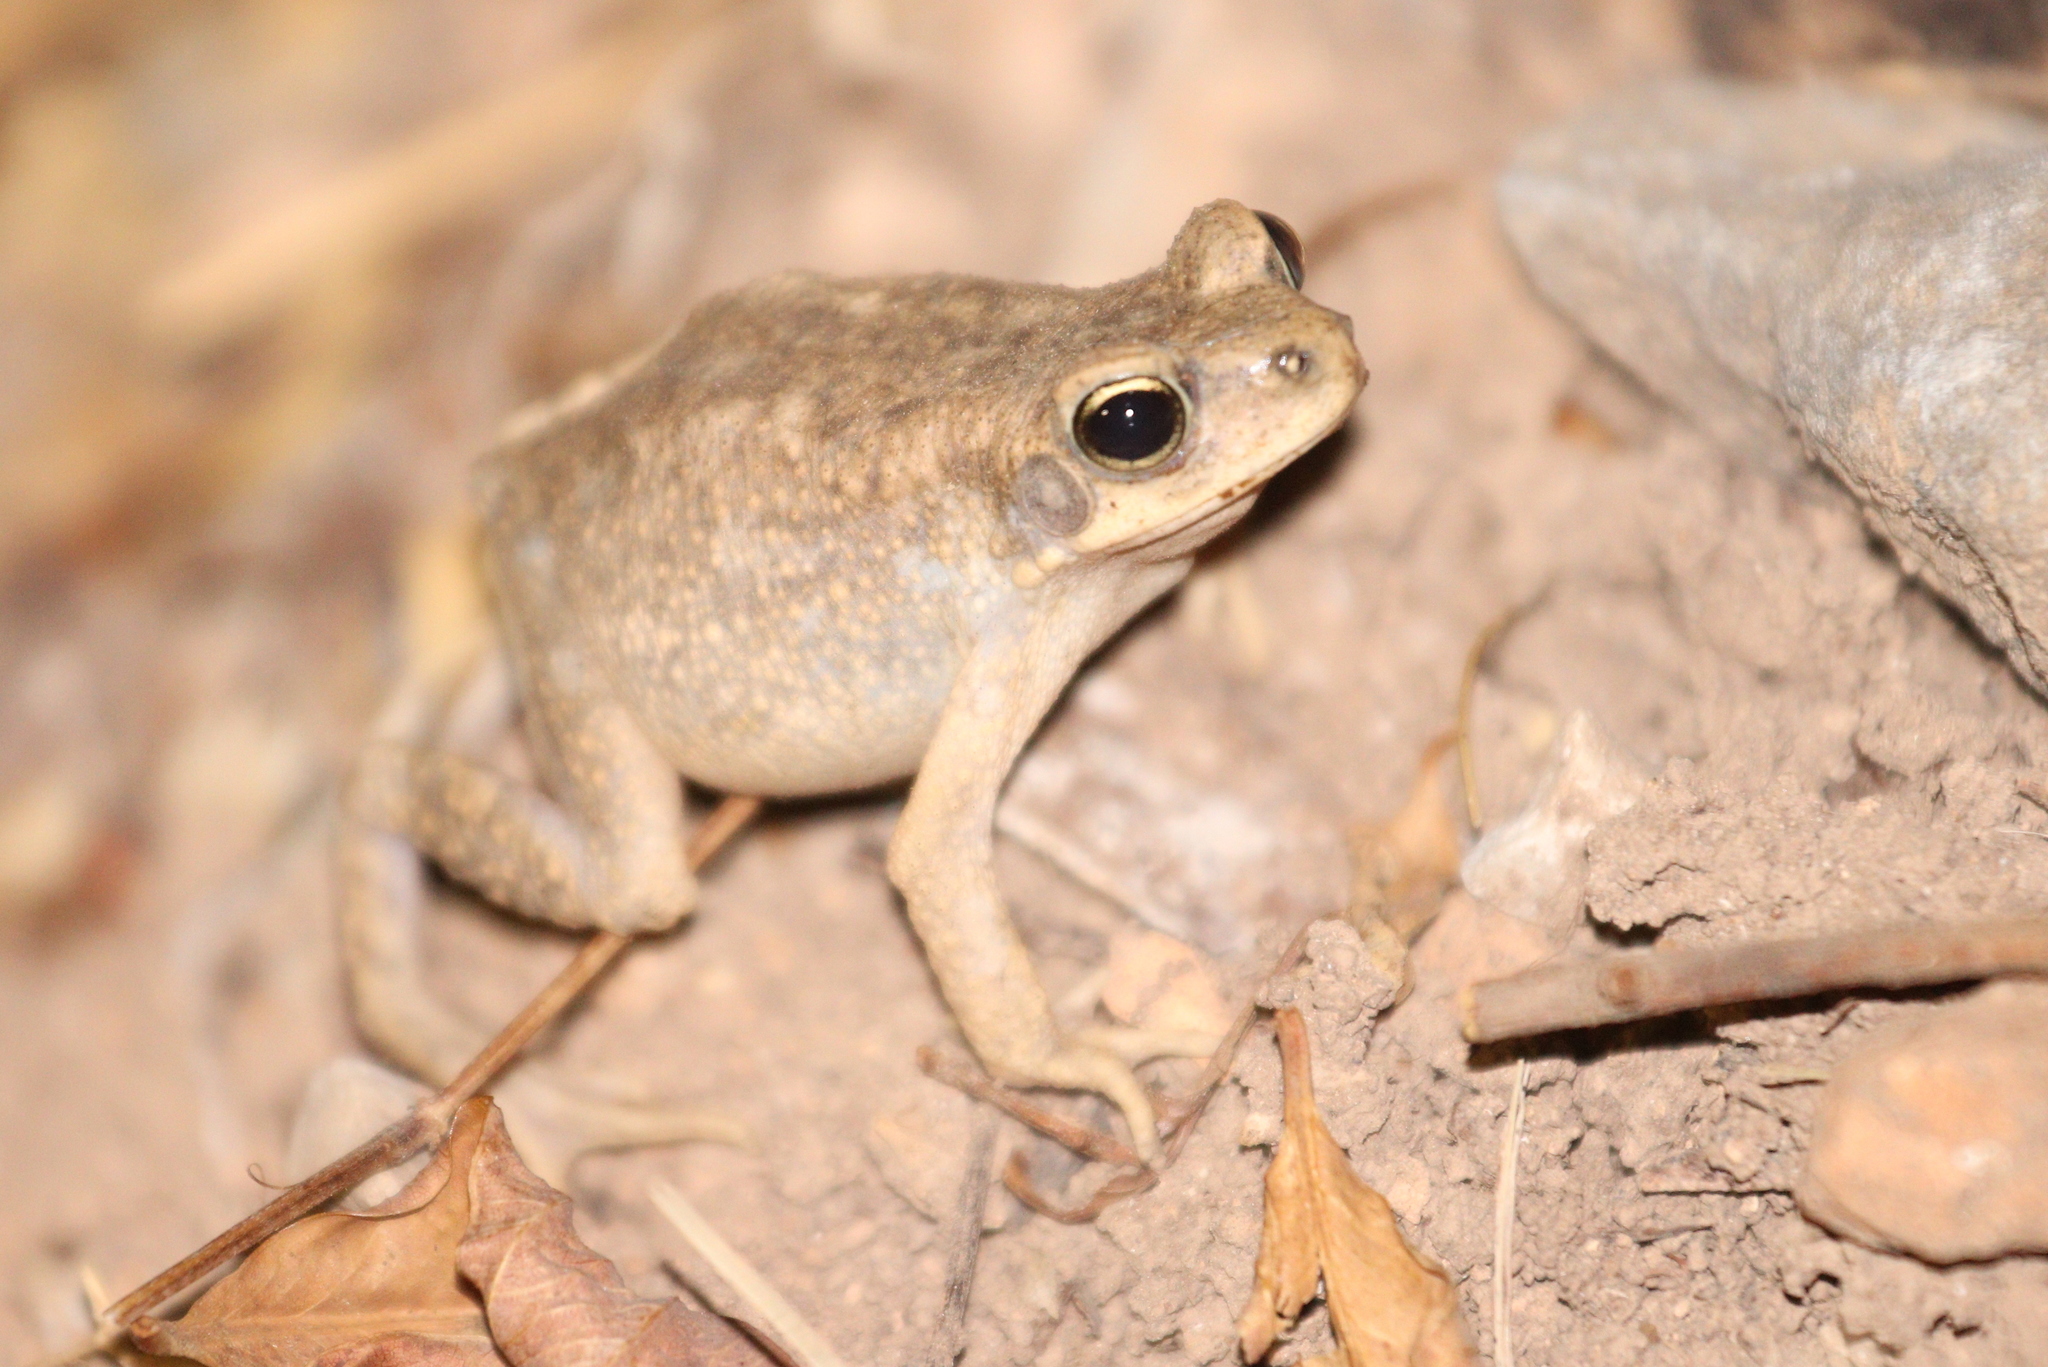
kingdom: Animalia
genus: Firouzophrynus
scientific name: Firouzophrynus
